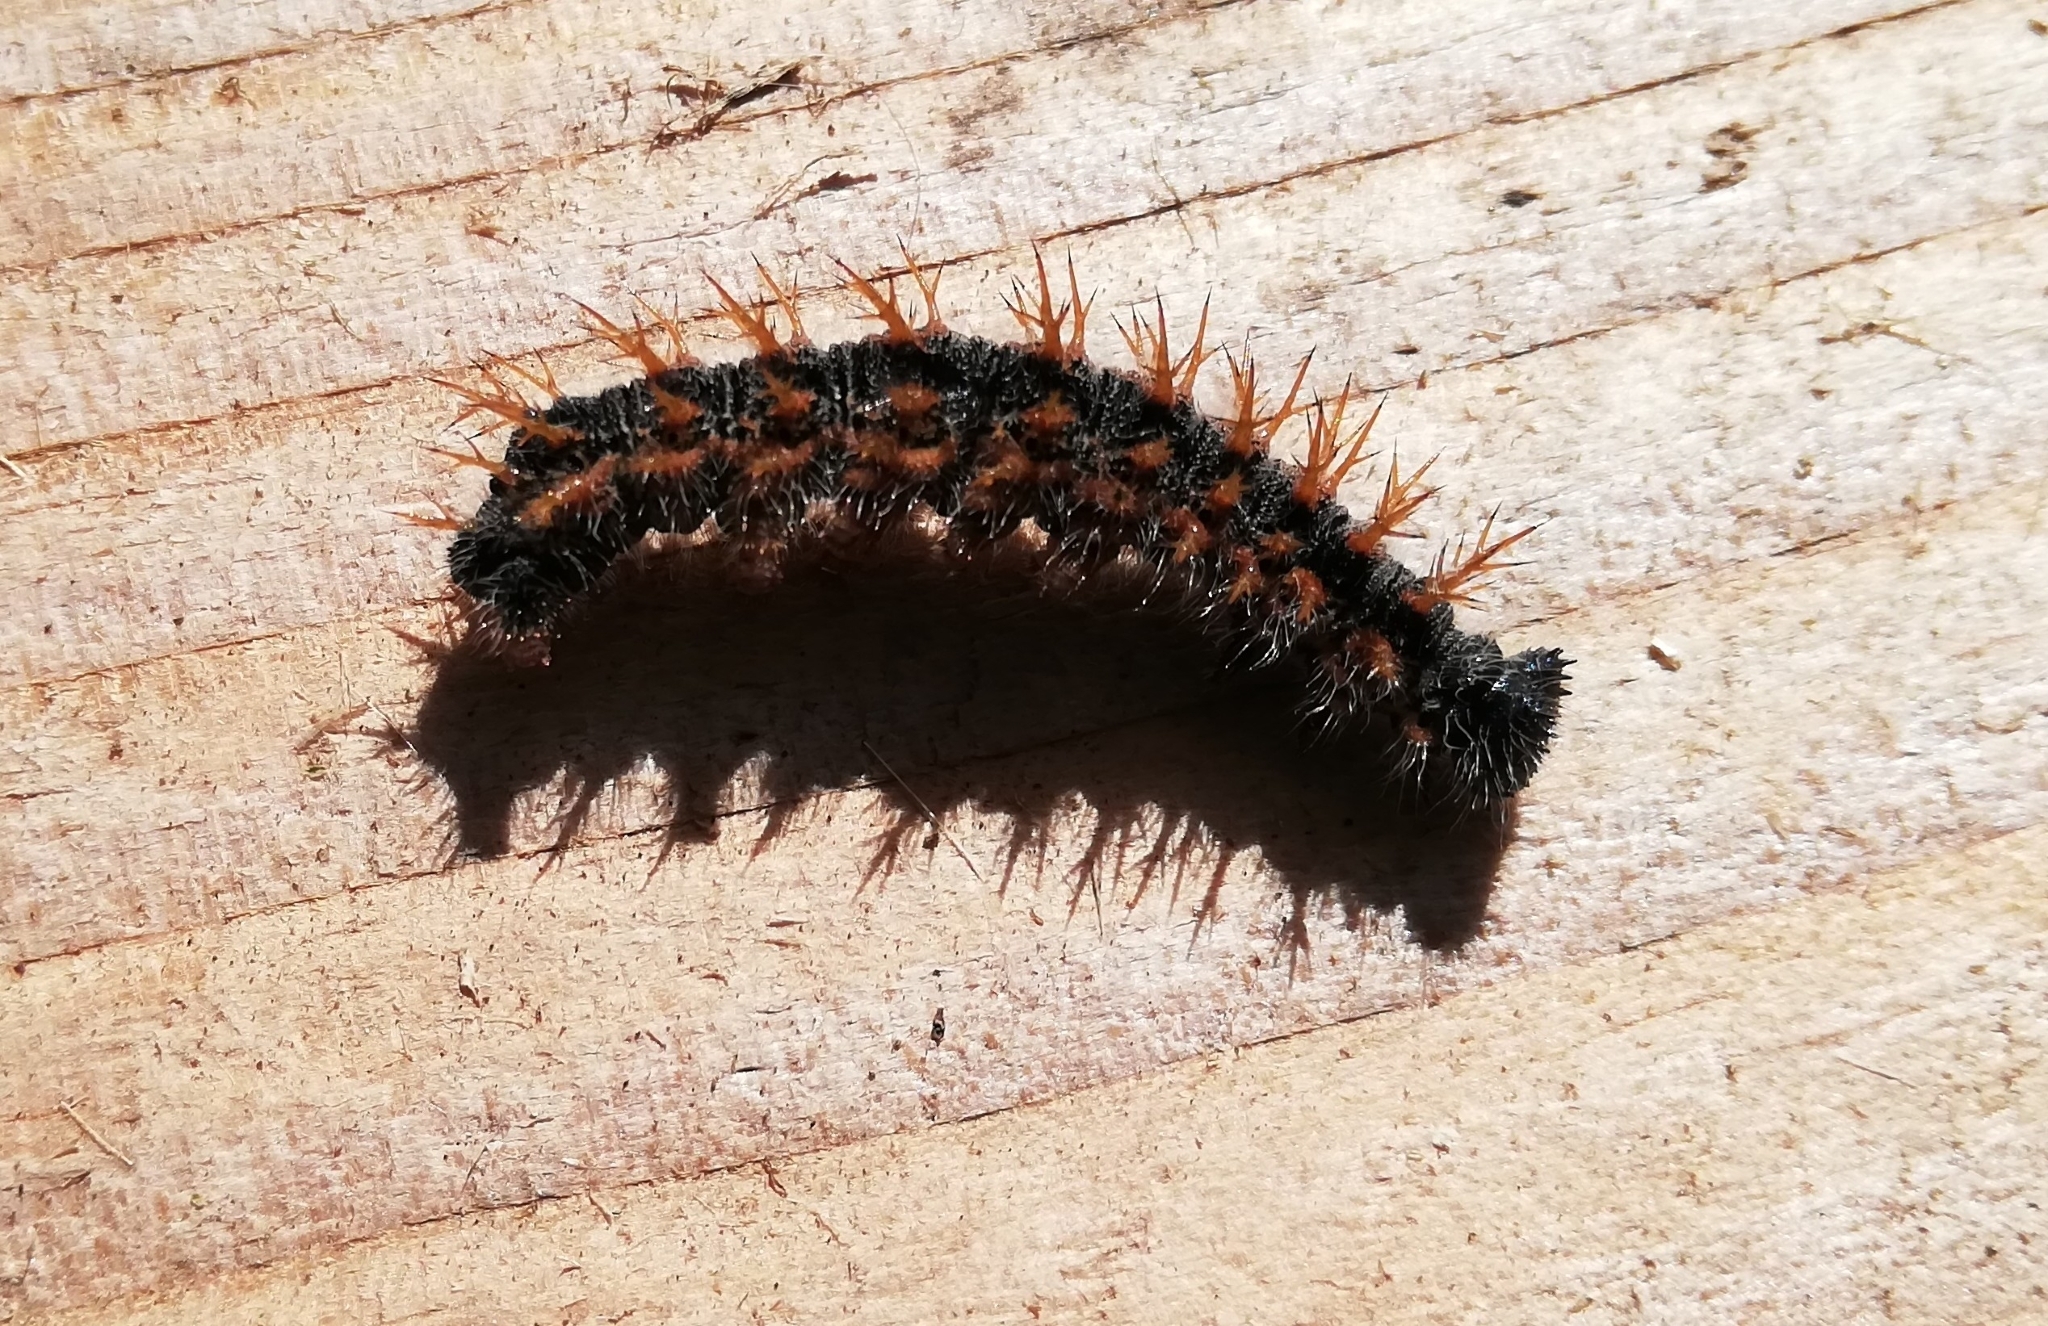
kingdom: Animalia
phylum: Arthropoda
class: Insecta
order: Lepidoptera
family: Nymphalidae
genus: Nymphalis
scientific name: Nymphalis polychloros
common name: Large tortoiseshell
